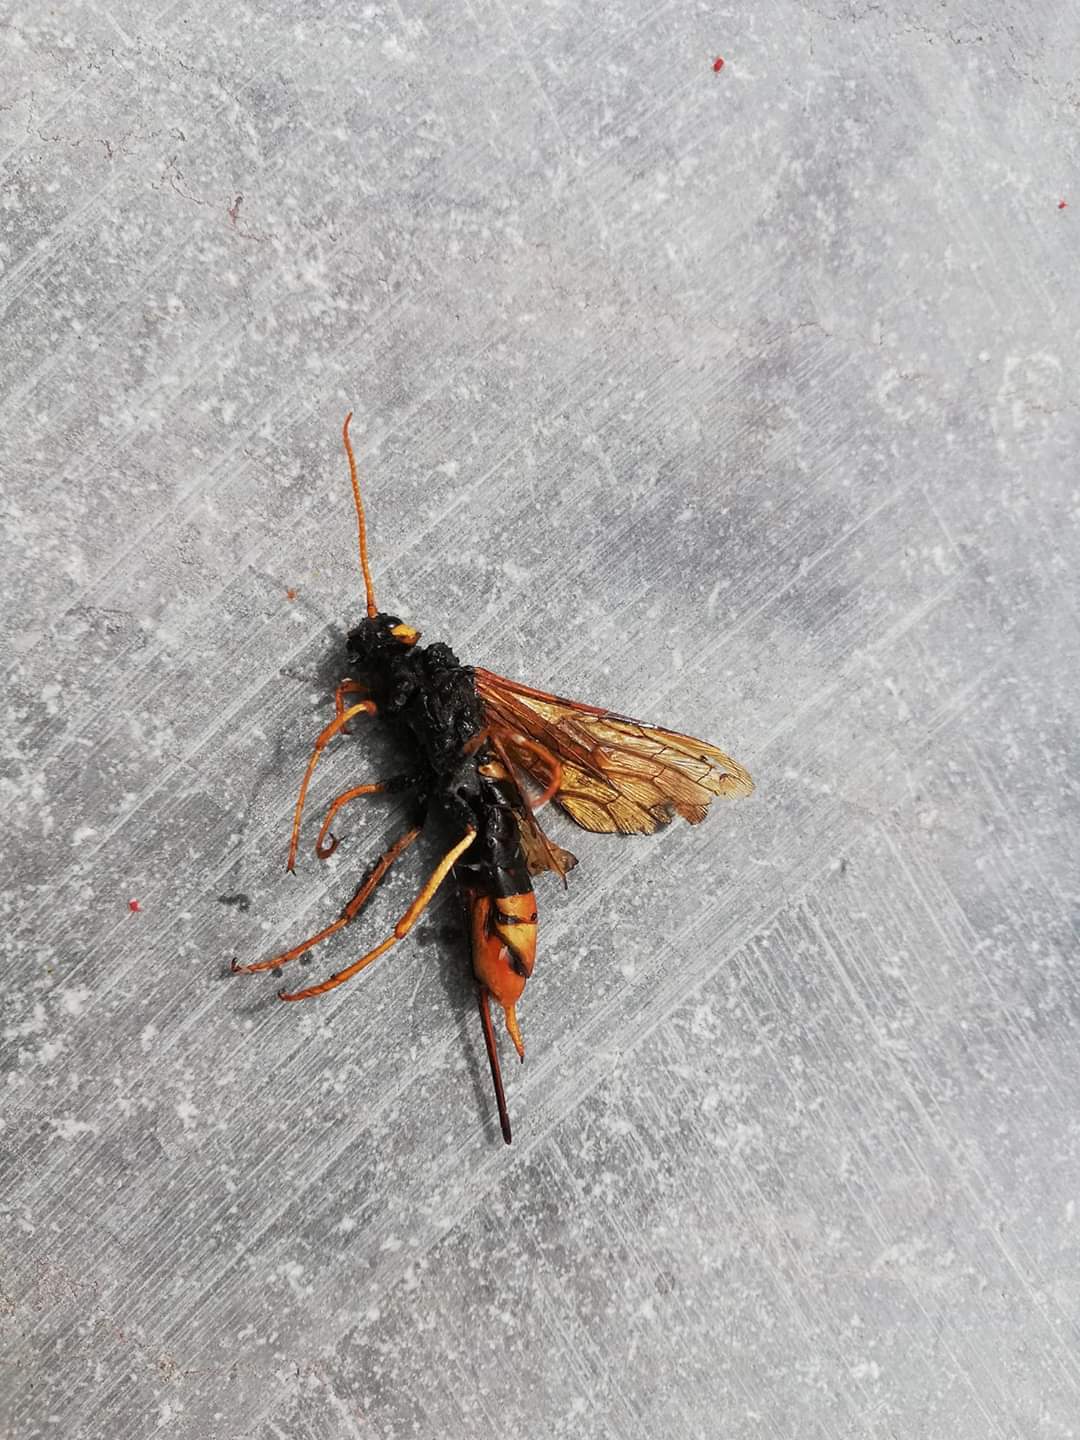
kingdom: Animalia
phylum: Arthropoda
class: Insecta
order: Hymenoptera
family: Siricidae
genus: Urocerus
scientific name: Urocerus gigas
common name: Giant woodwasp
